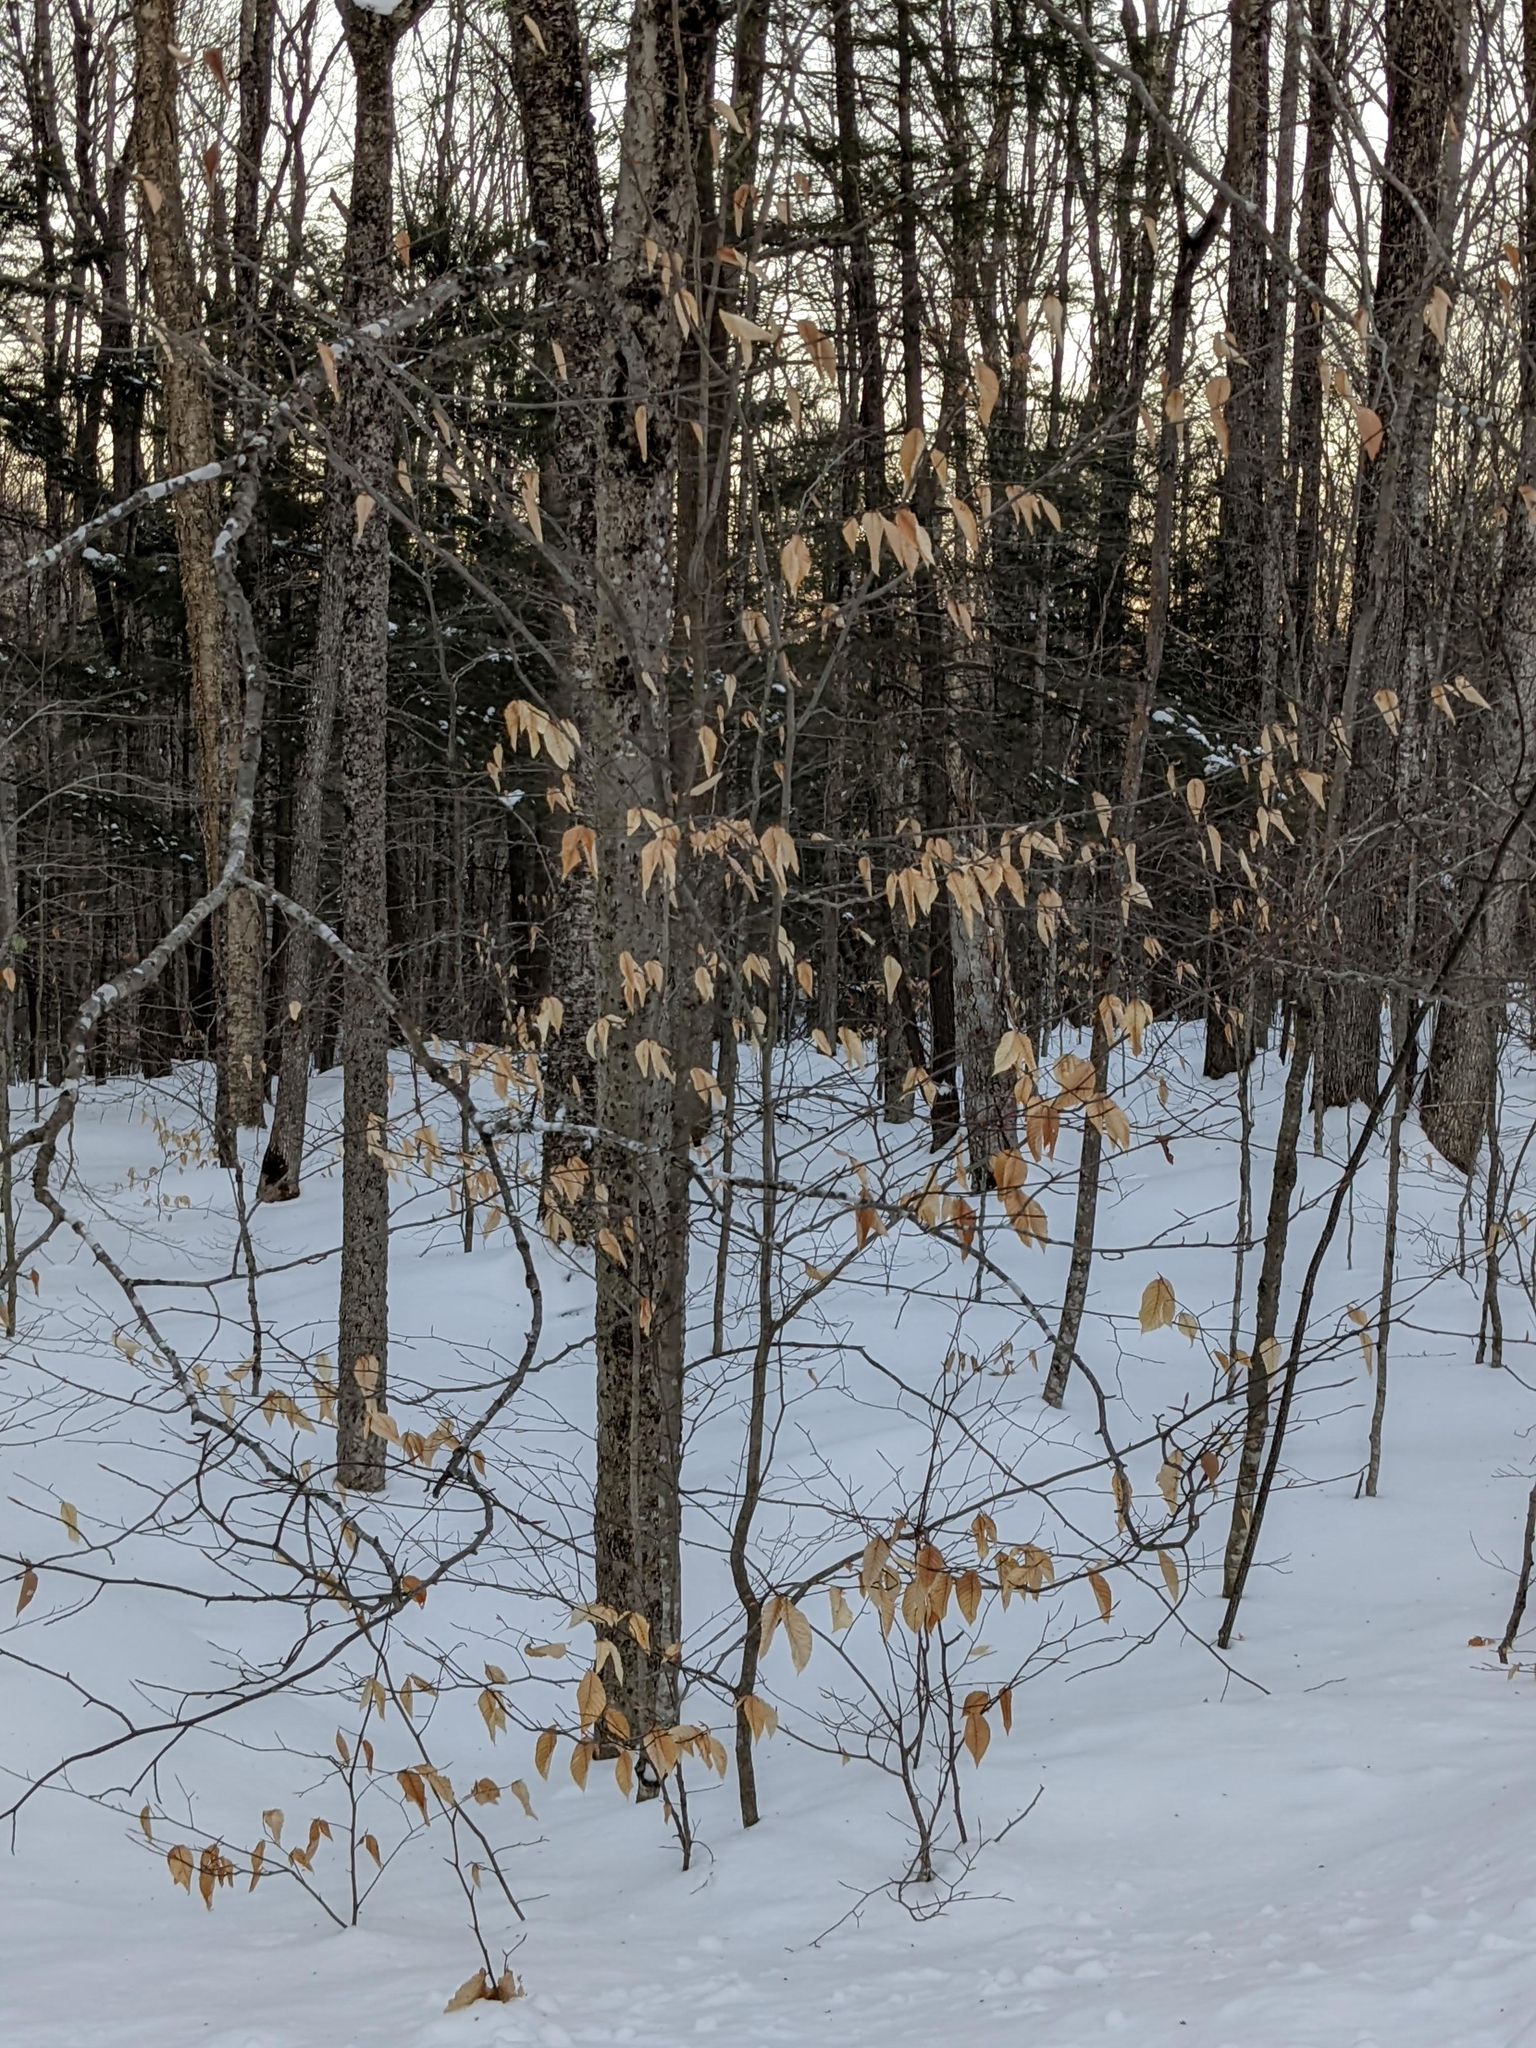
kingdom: Plantae
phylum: Tracheophyta
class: Magnoliopsida
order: Fagales
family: Fagaceae
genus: Fagus
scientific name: Fagus grandifolia
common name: American beech
